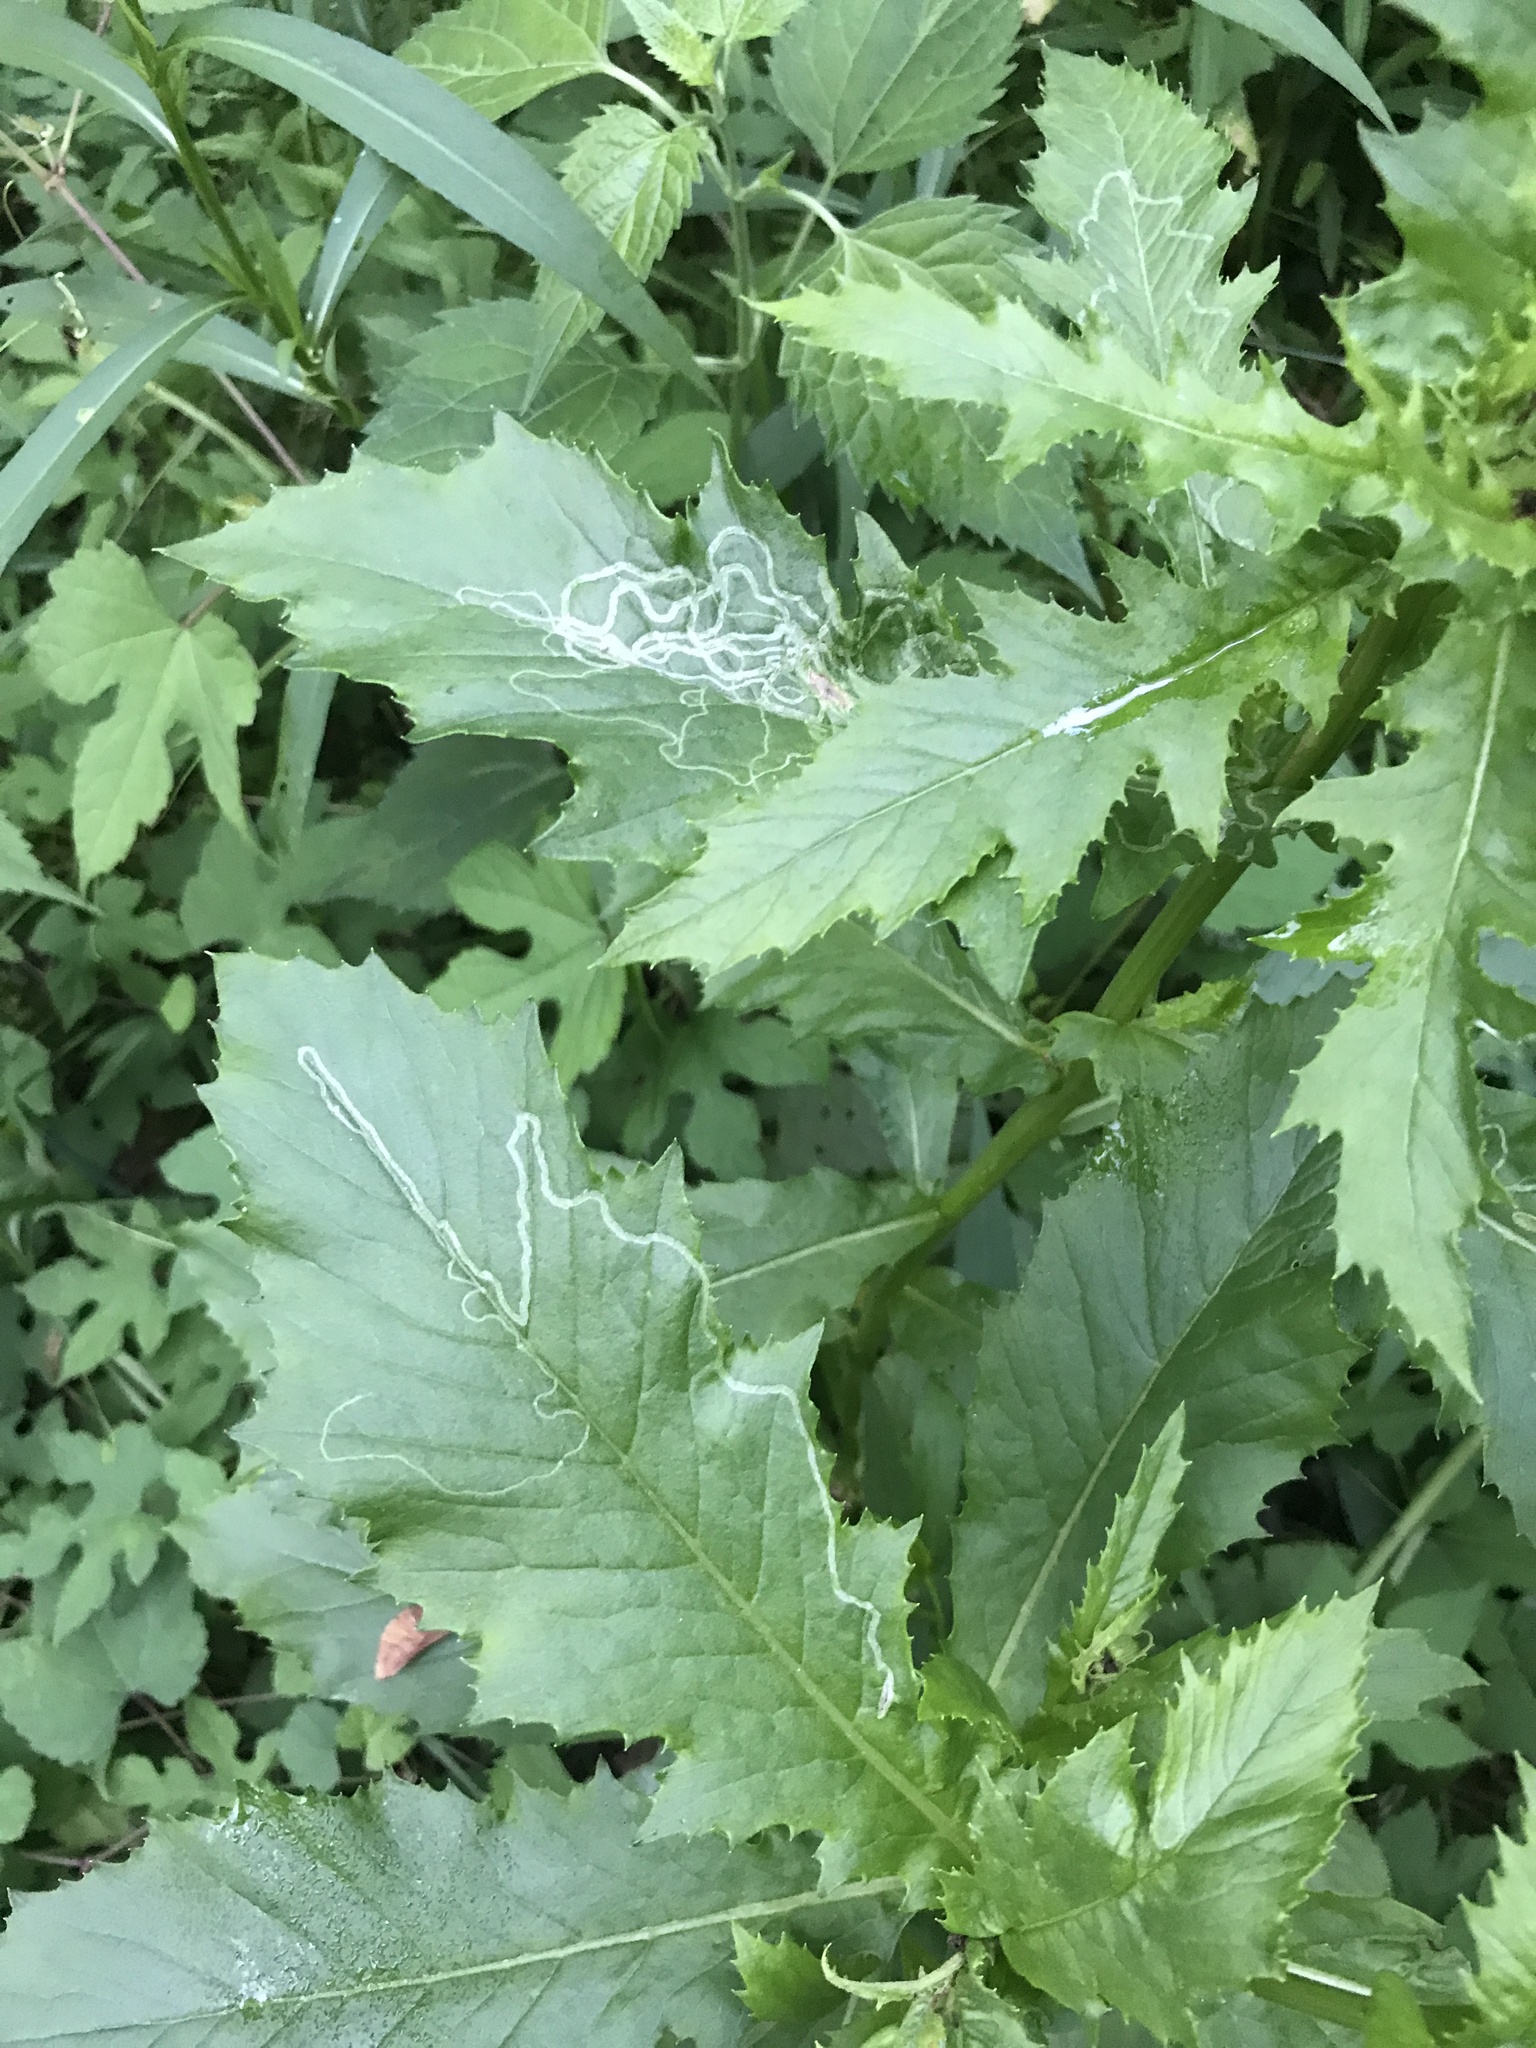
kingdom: Animalia
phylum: Arthropoda
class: Insecta
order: Lepidoptera
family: Gracillariidae
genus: Phyllocnistis
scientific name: Phyllocnistis insignis
